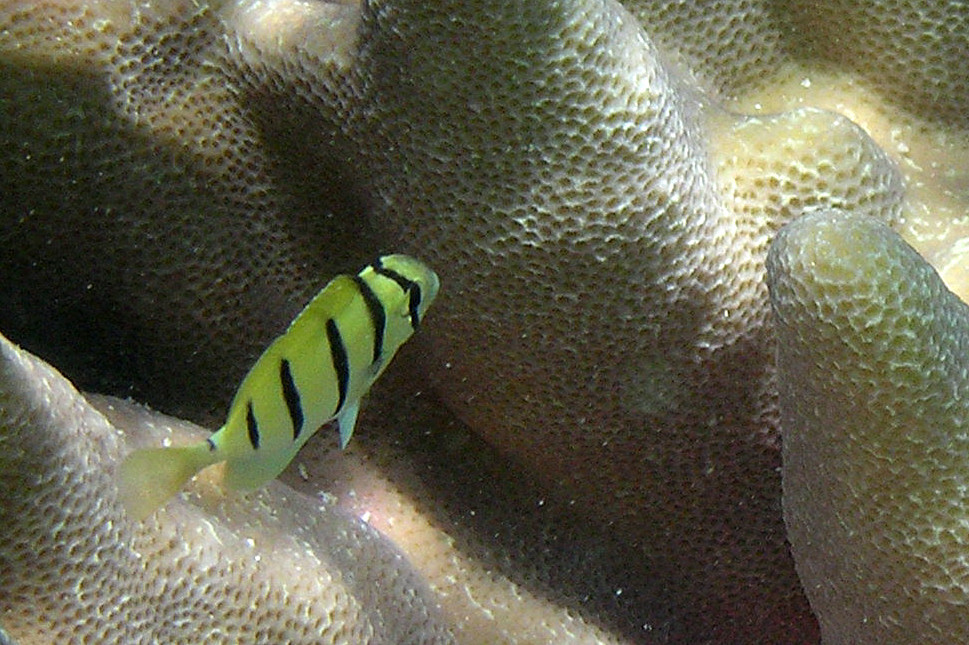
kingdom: Animalia
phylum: Chordata
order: Perciformes
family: Acanthuridae
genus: Acanthurus
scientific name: Acanthurus triostegus
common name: Convict surgeonfish
